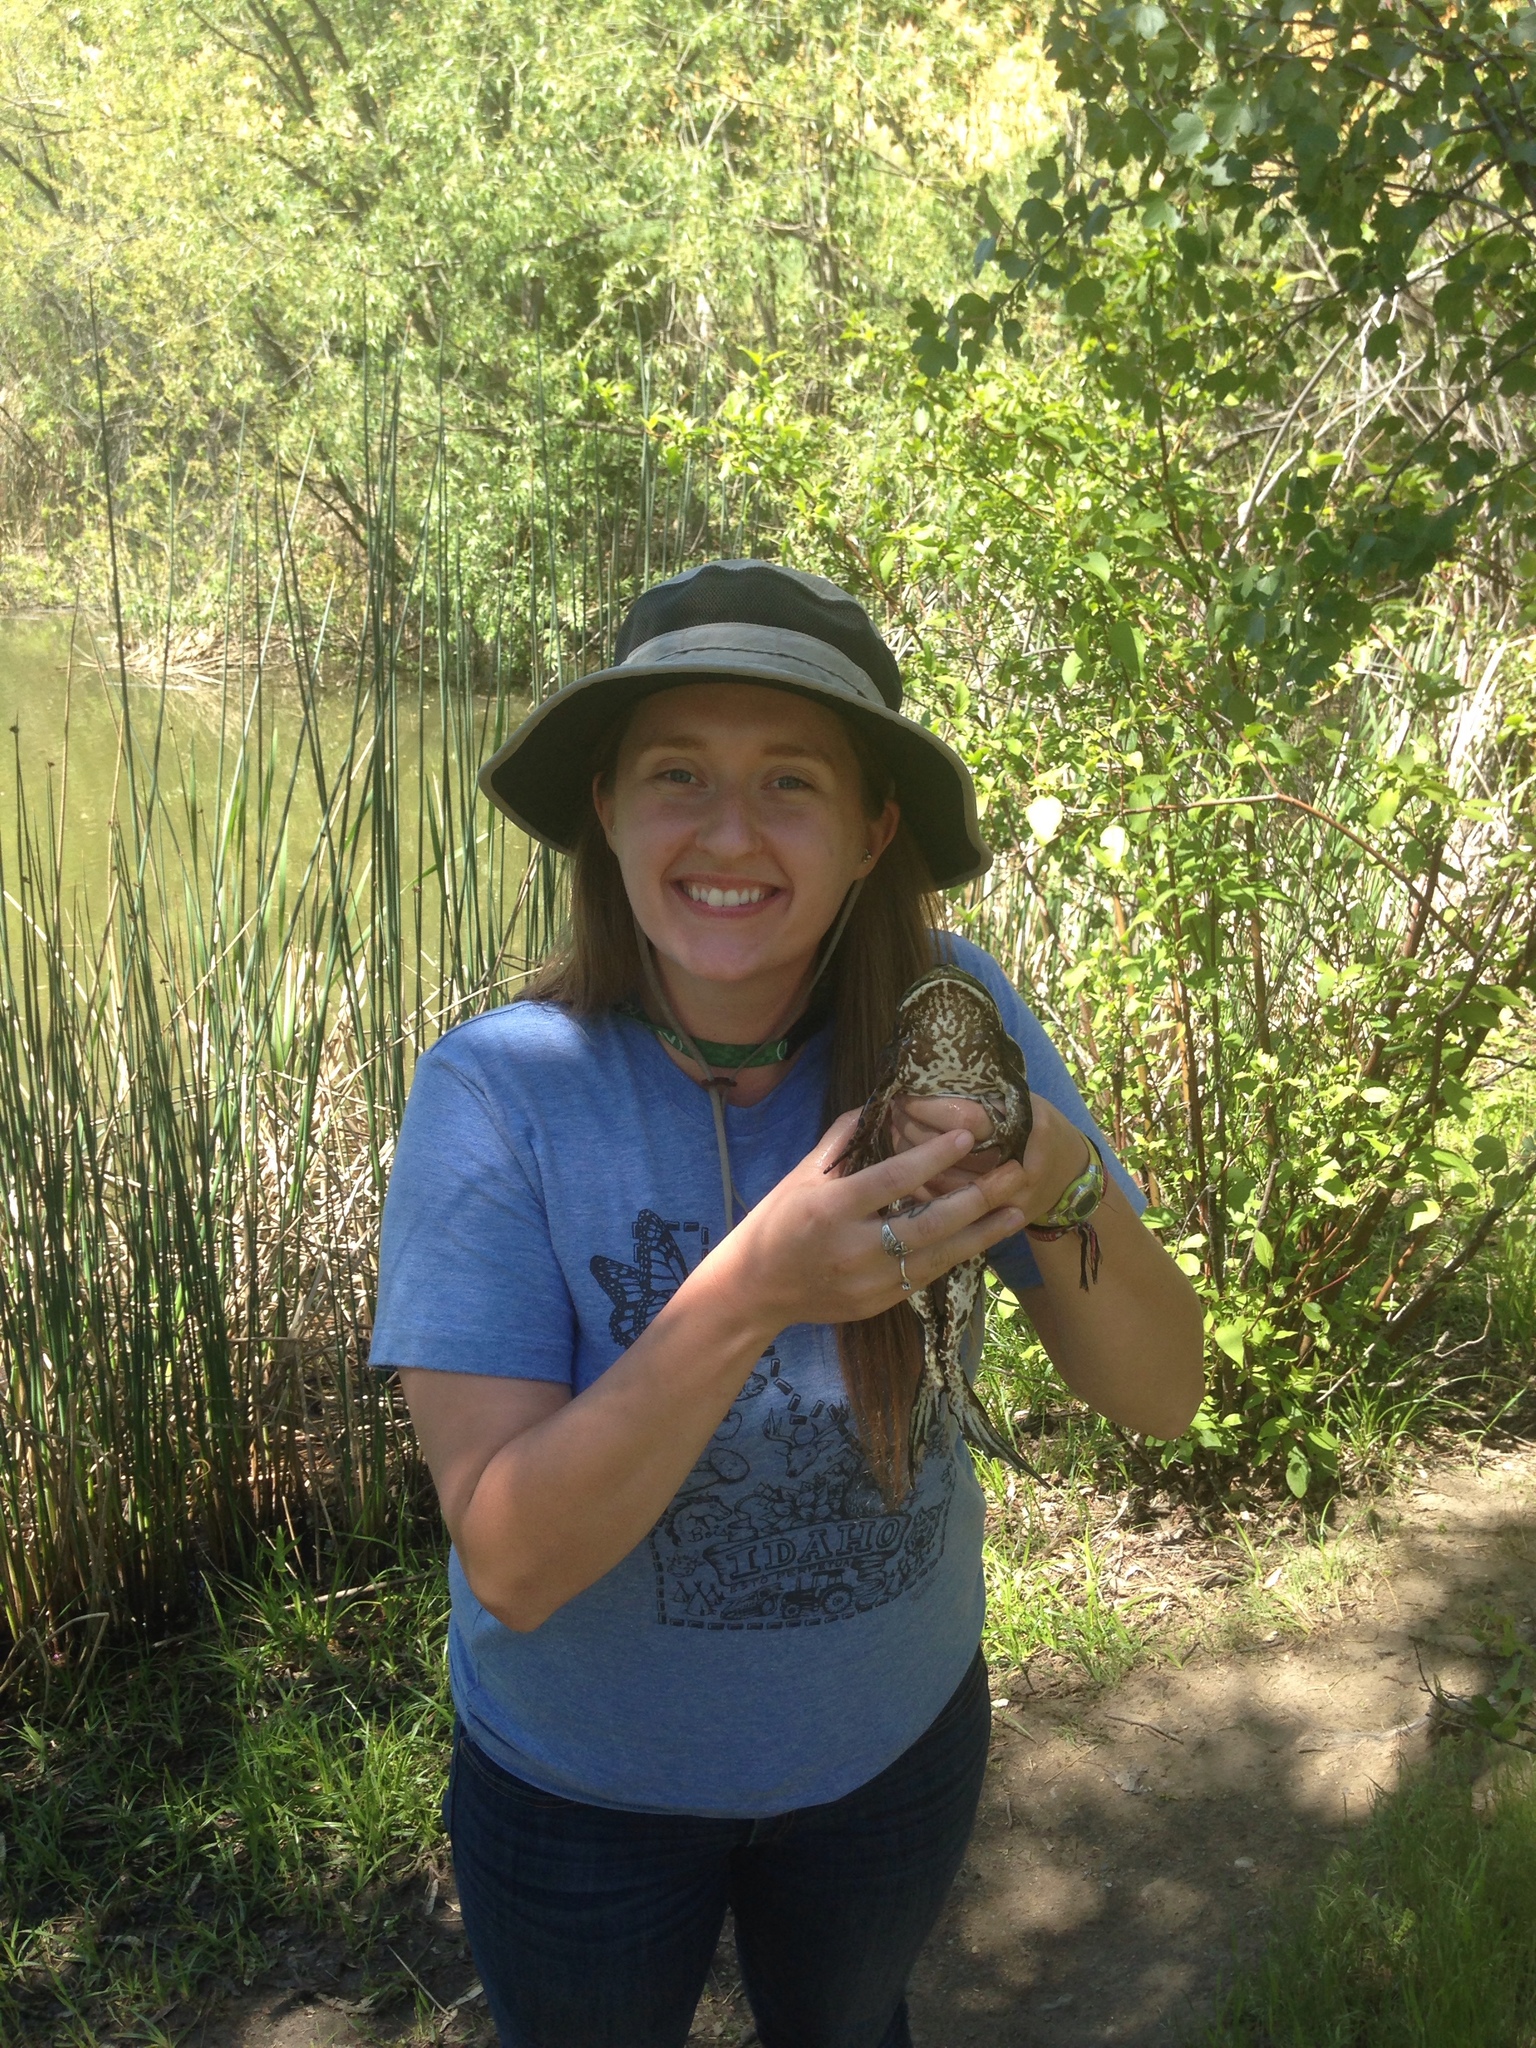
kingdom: Animalia
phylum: Chordata
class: Amphibia
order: Anura
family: Ranidae
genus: Lithobates
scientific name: Lithobates catesbeianus
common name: American bullfrog
